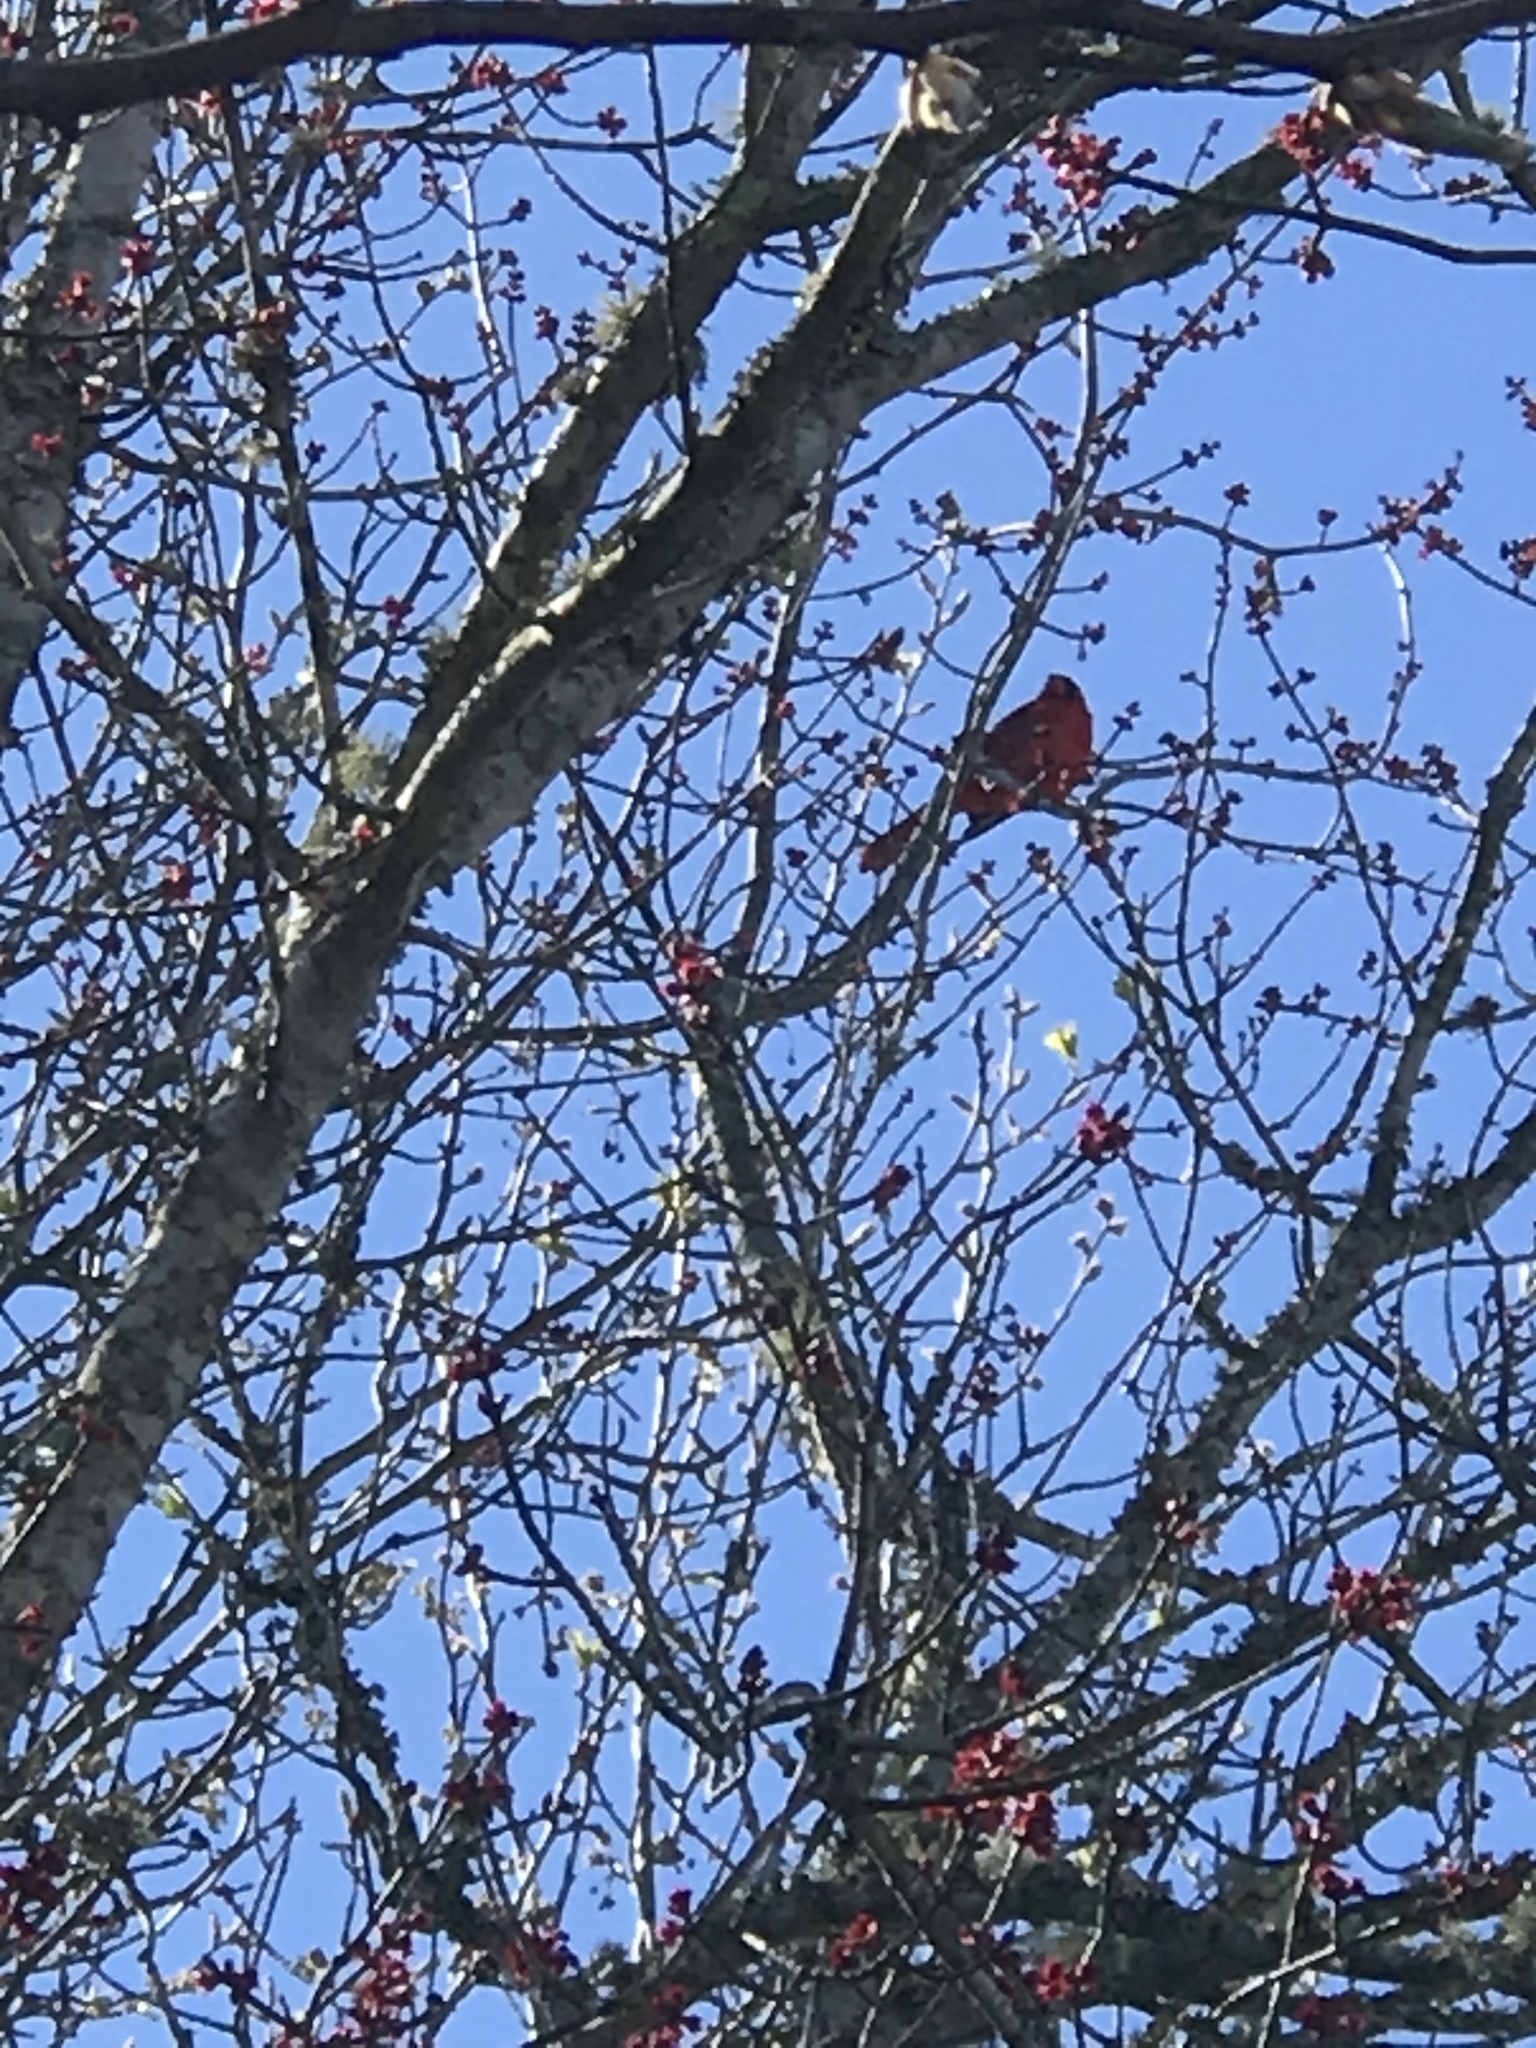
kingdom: Animalia
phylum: Chordata
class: Aves
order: Passeriformes
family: Cardinalidae
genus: Cardinalis
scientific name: Cardinalis cardinalis
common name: Northern cardinal
